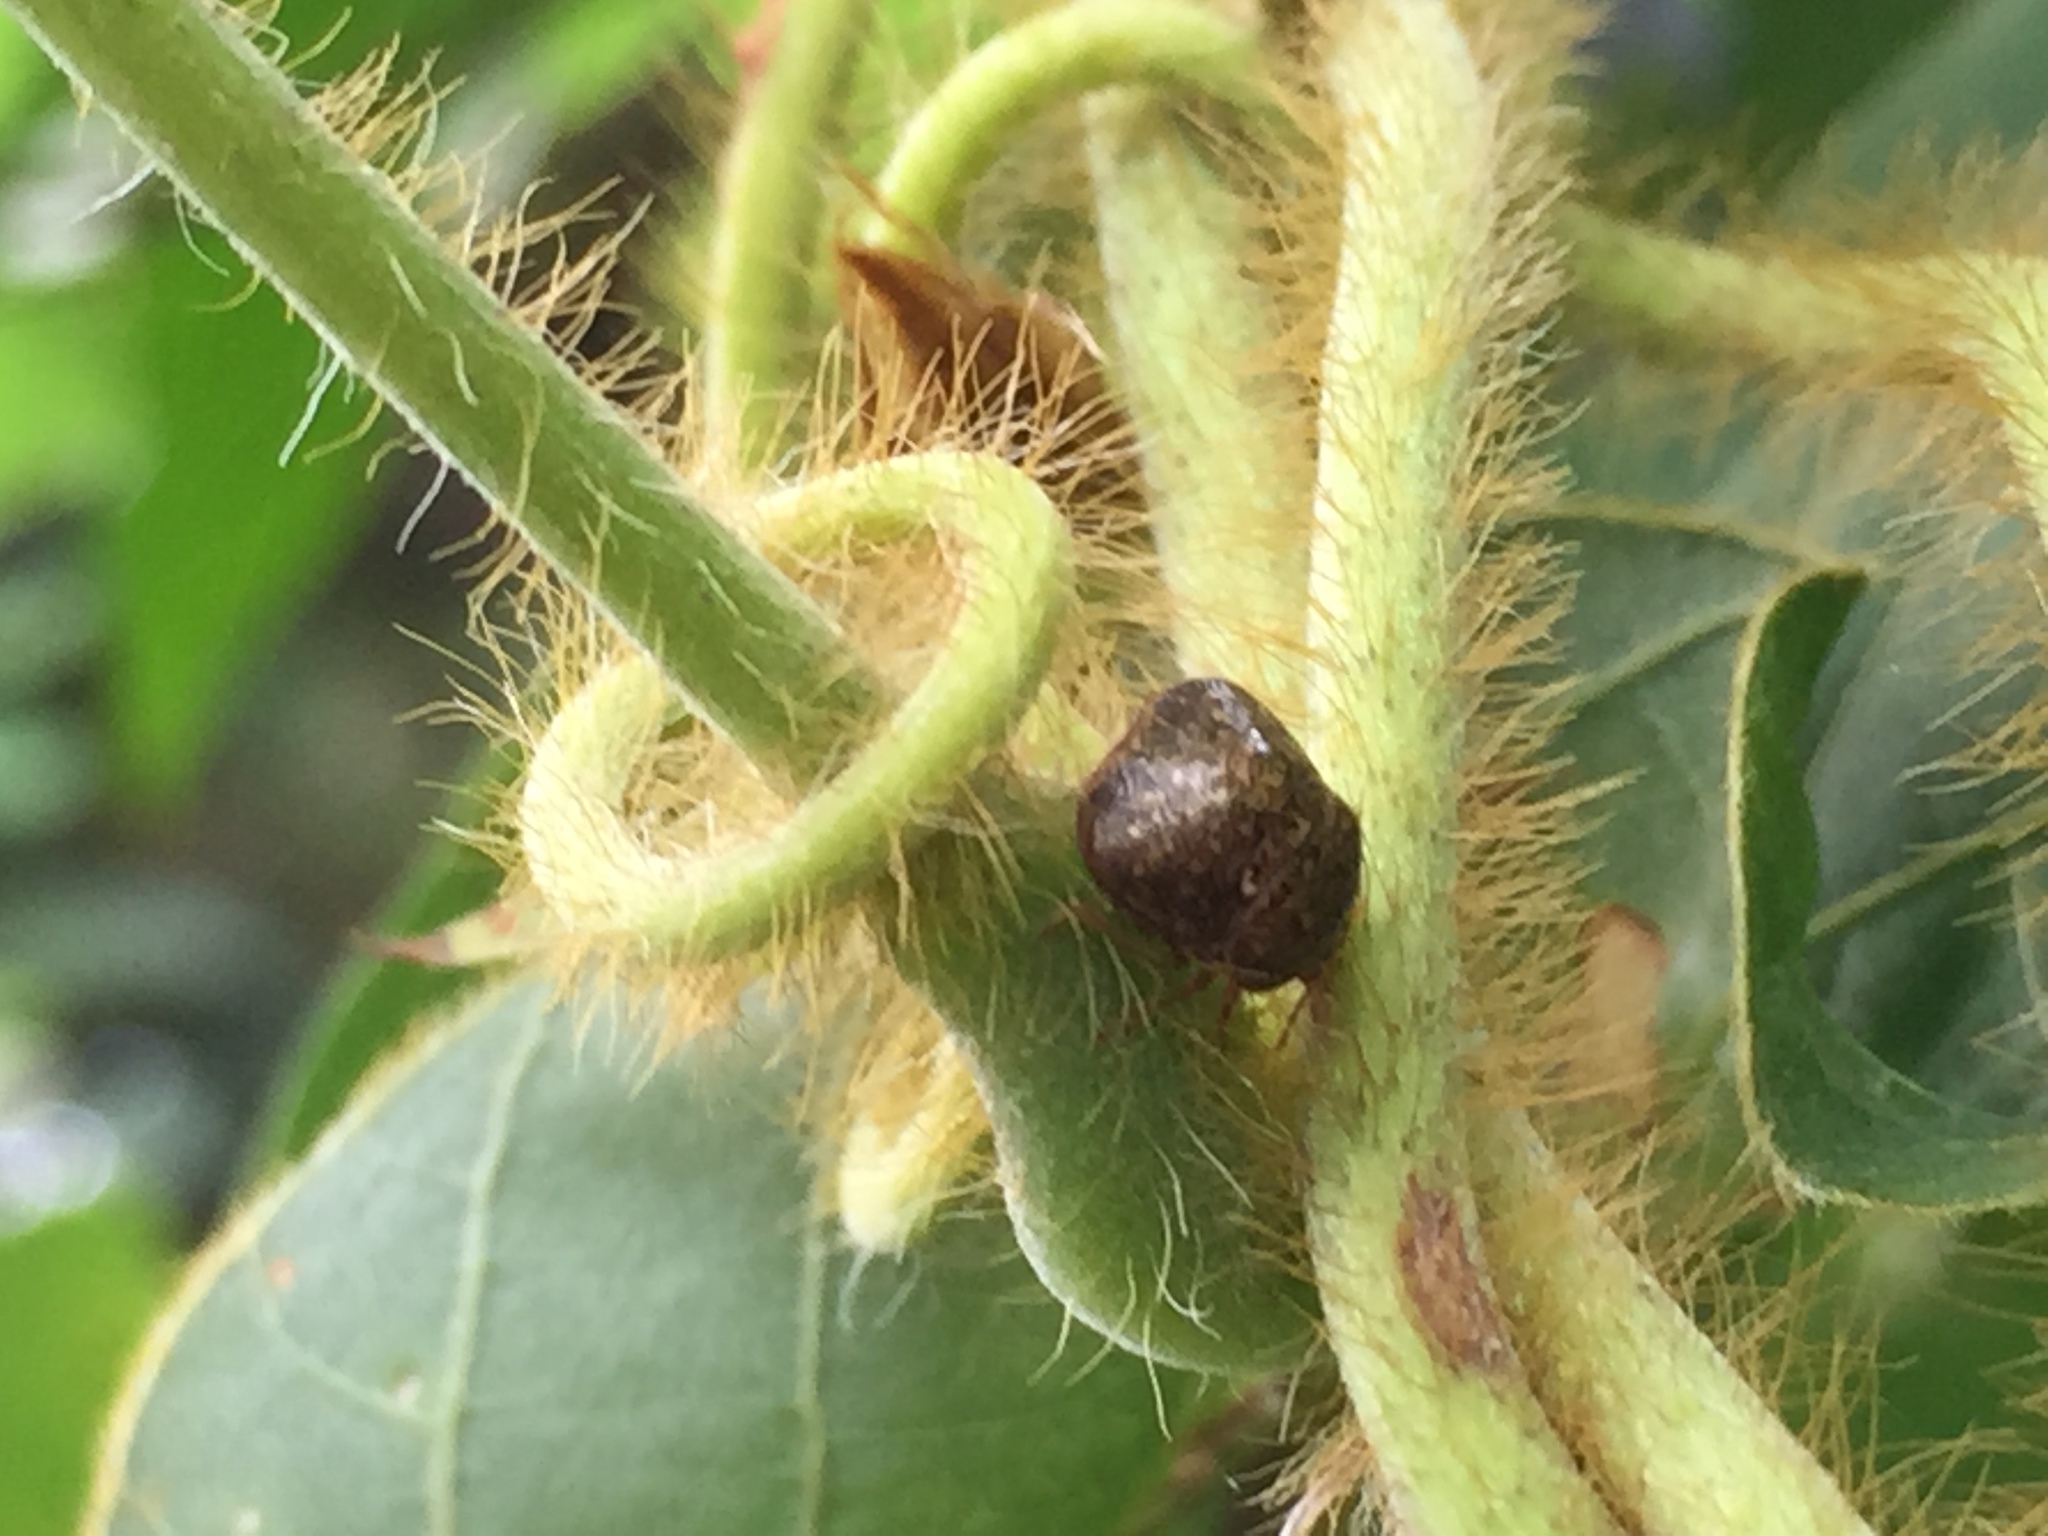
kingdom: Animalia
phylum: Arthropoda
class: Insecta
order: Hemiptera
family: Plataspidae
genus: Megacopta
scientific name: Megacopta cribraria
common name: Bean plataspid
